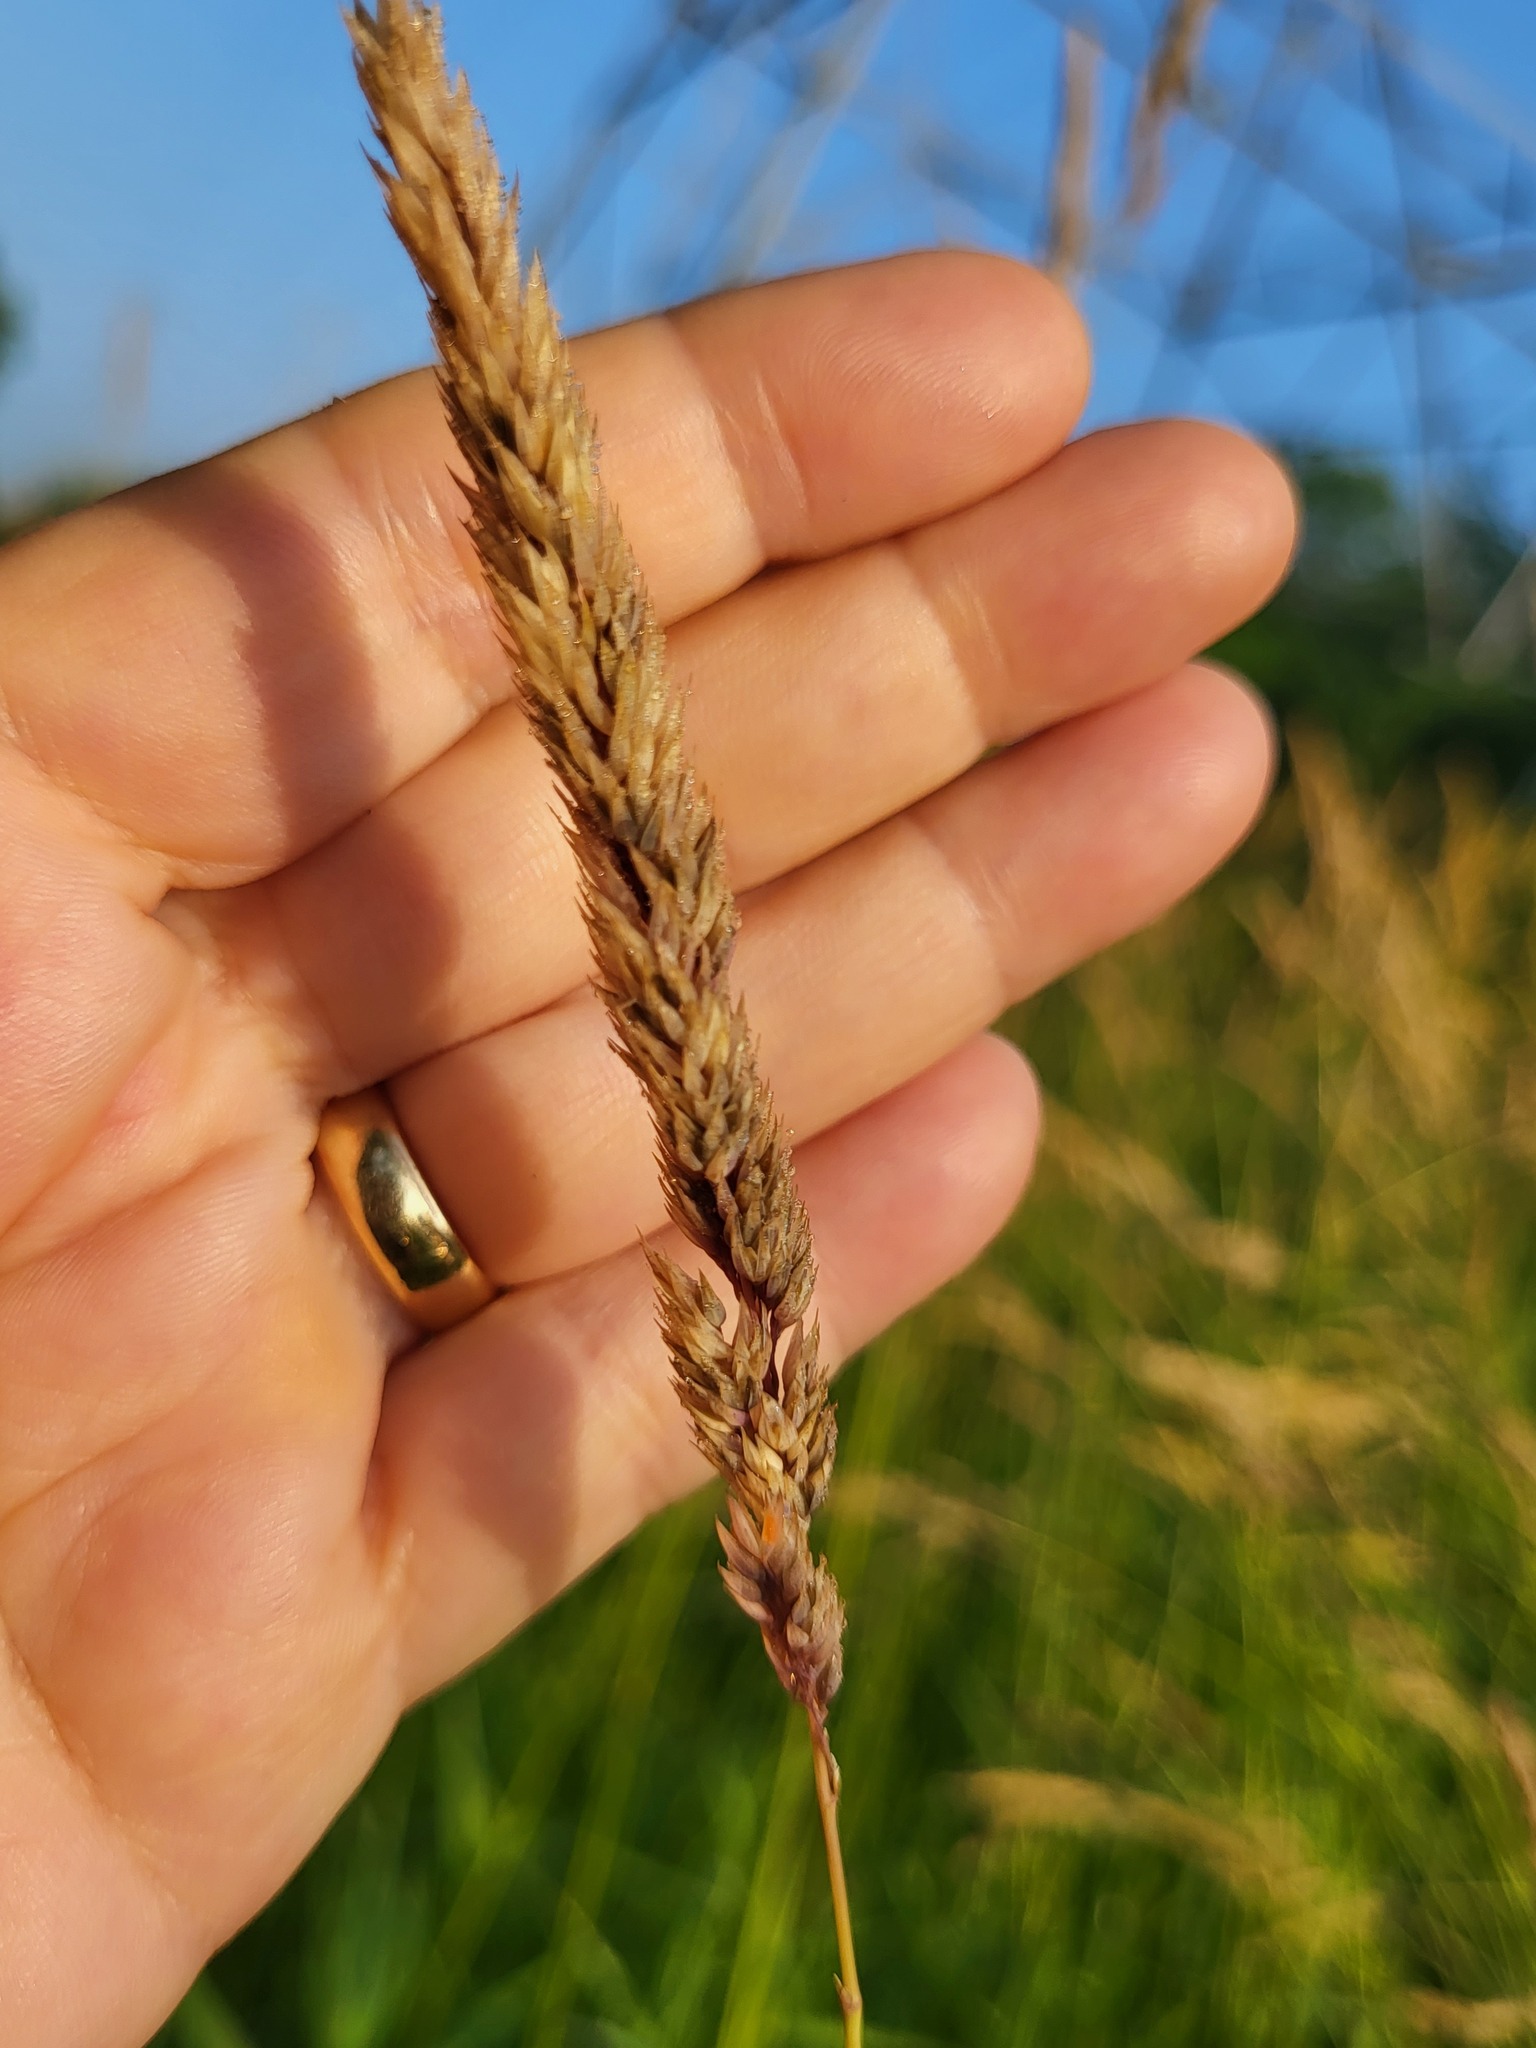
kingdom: Plantae
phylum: Tracheophyta
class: Liliopsida
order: Poales
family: Poaceae
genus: Phalaris
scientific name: Phalaris arundinacea
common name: Reed canary-grass
